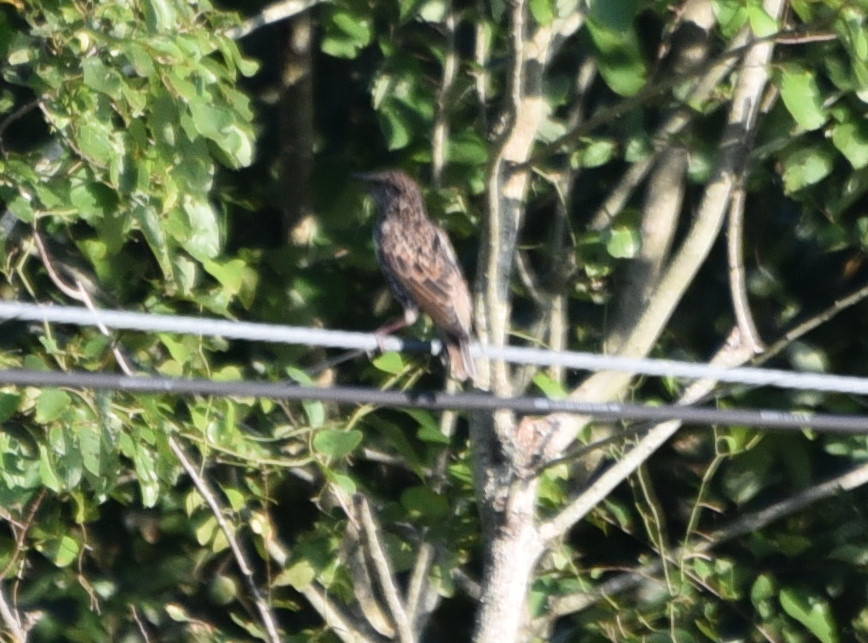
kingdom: Animalia
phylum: Chordata
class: Aves
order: Passeriformes
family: Sturnidae
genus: Sturnus
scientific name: Sturnus vulgaris
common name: Common starling
